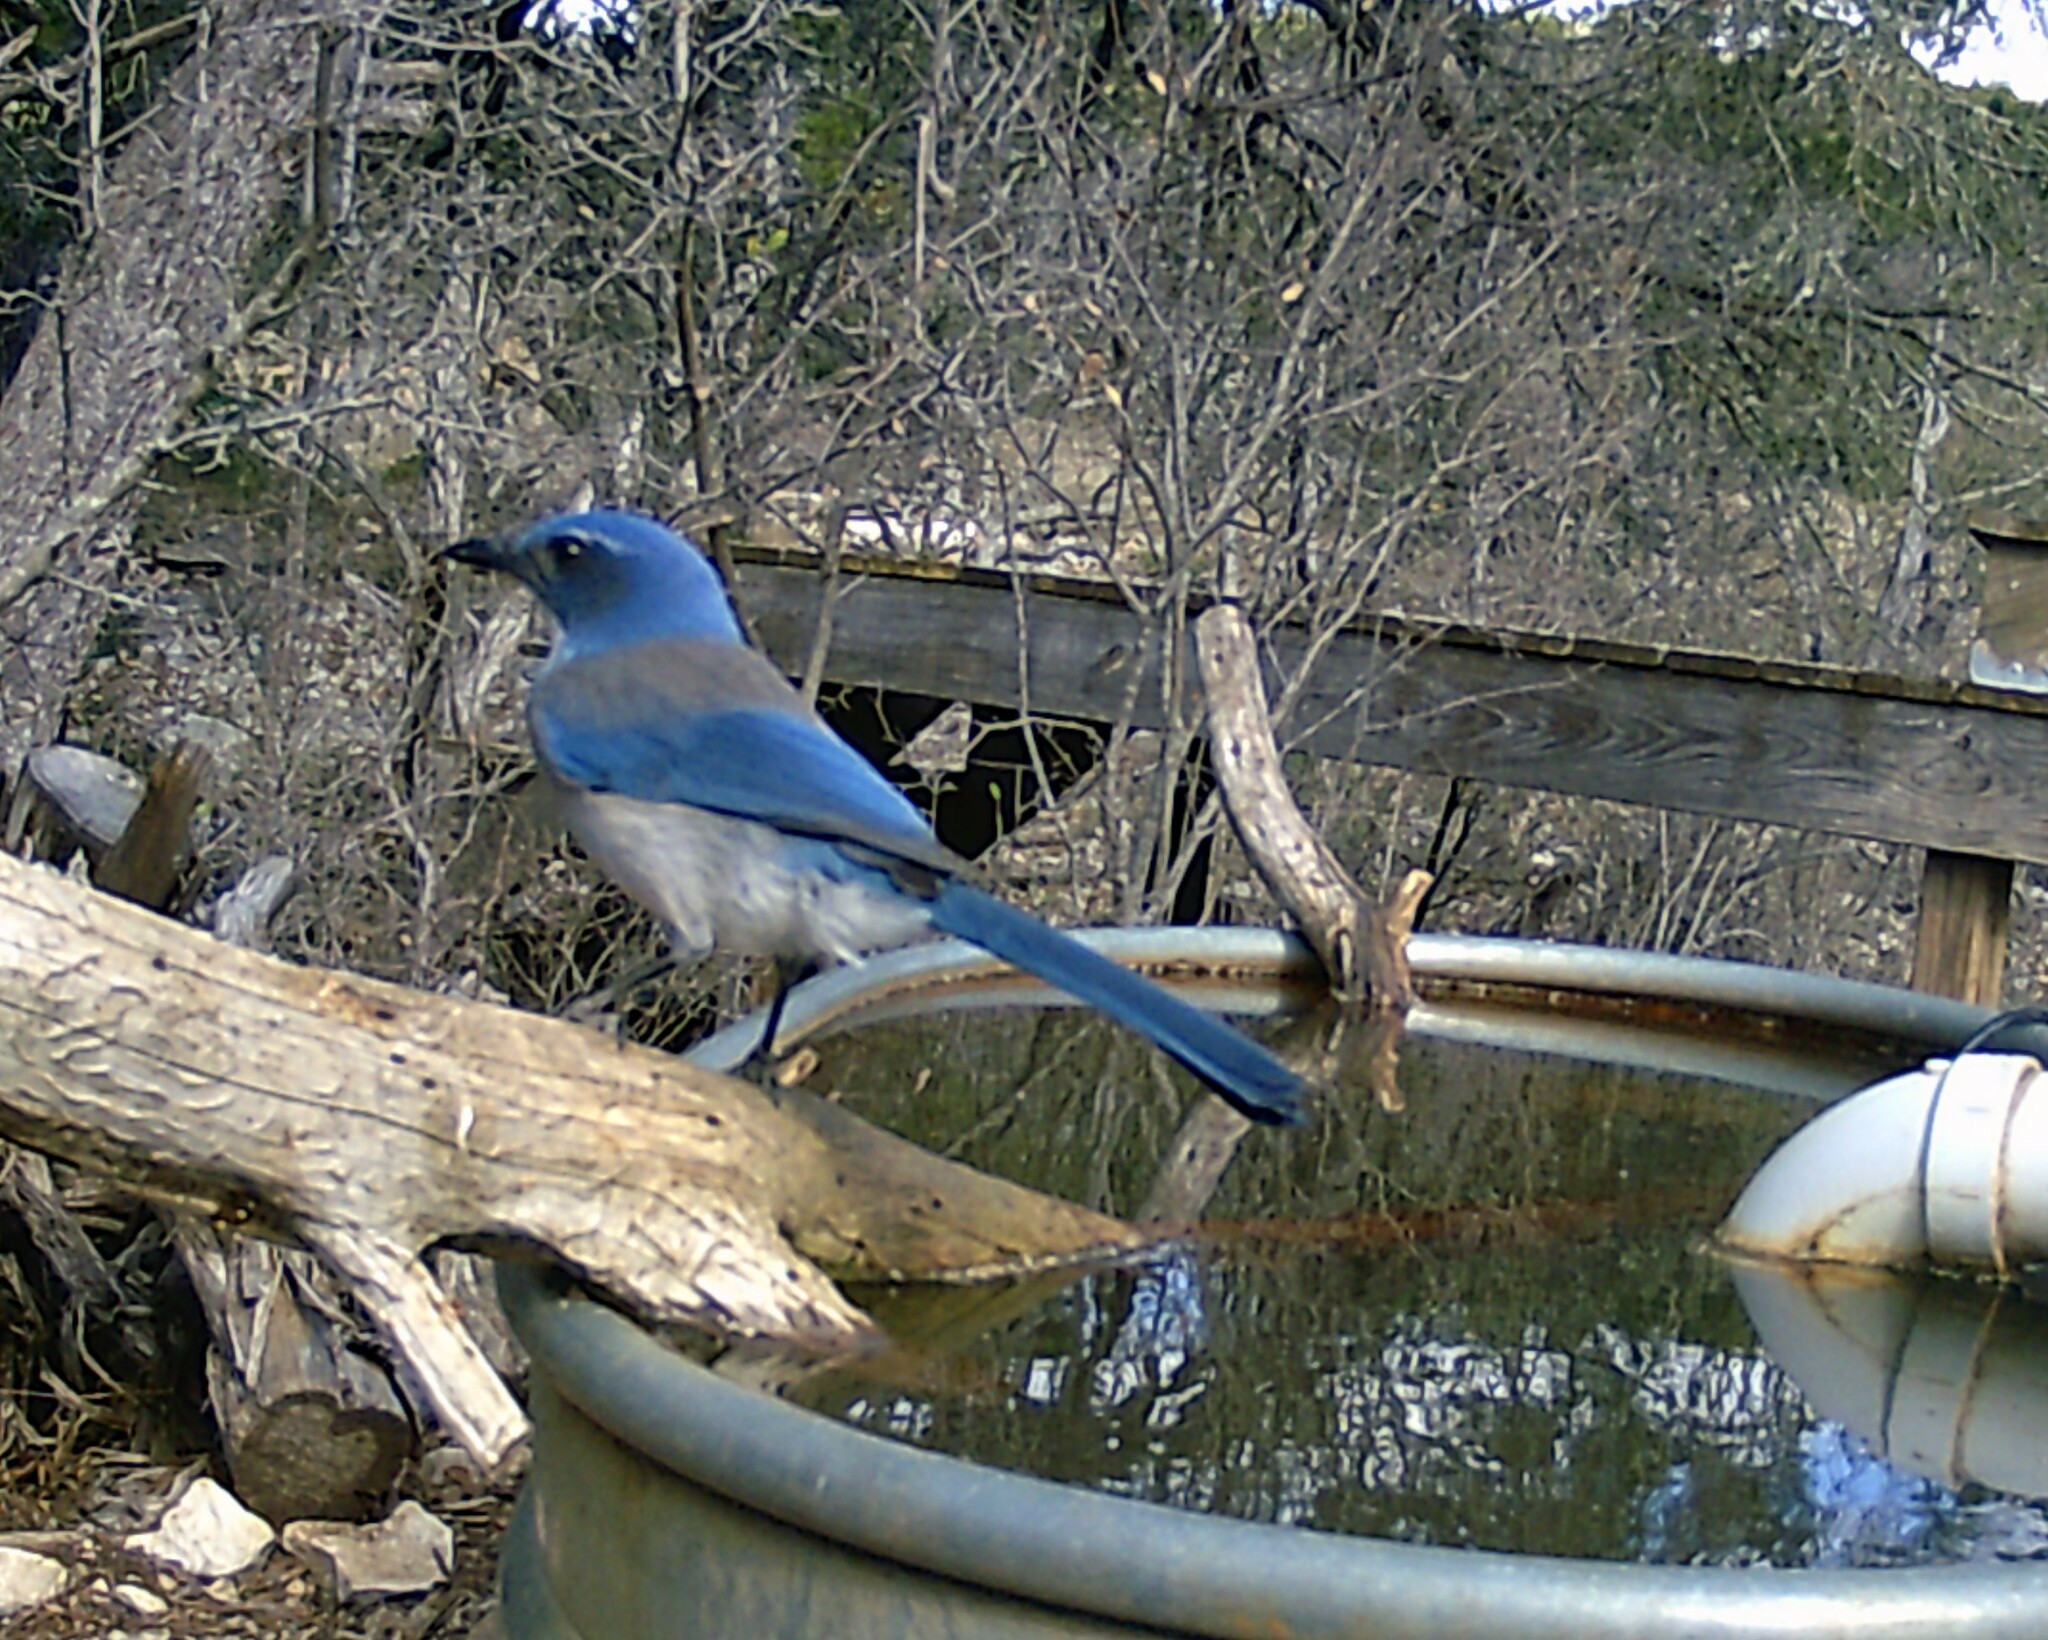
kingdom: Animalia
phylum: Chordata
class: Aves
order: Passeriformes
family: Corvidae
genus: Aphelocoma
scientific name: Aphelocoma woodhouseii
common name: Woodhouse's scrub-jay
